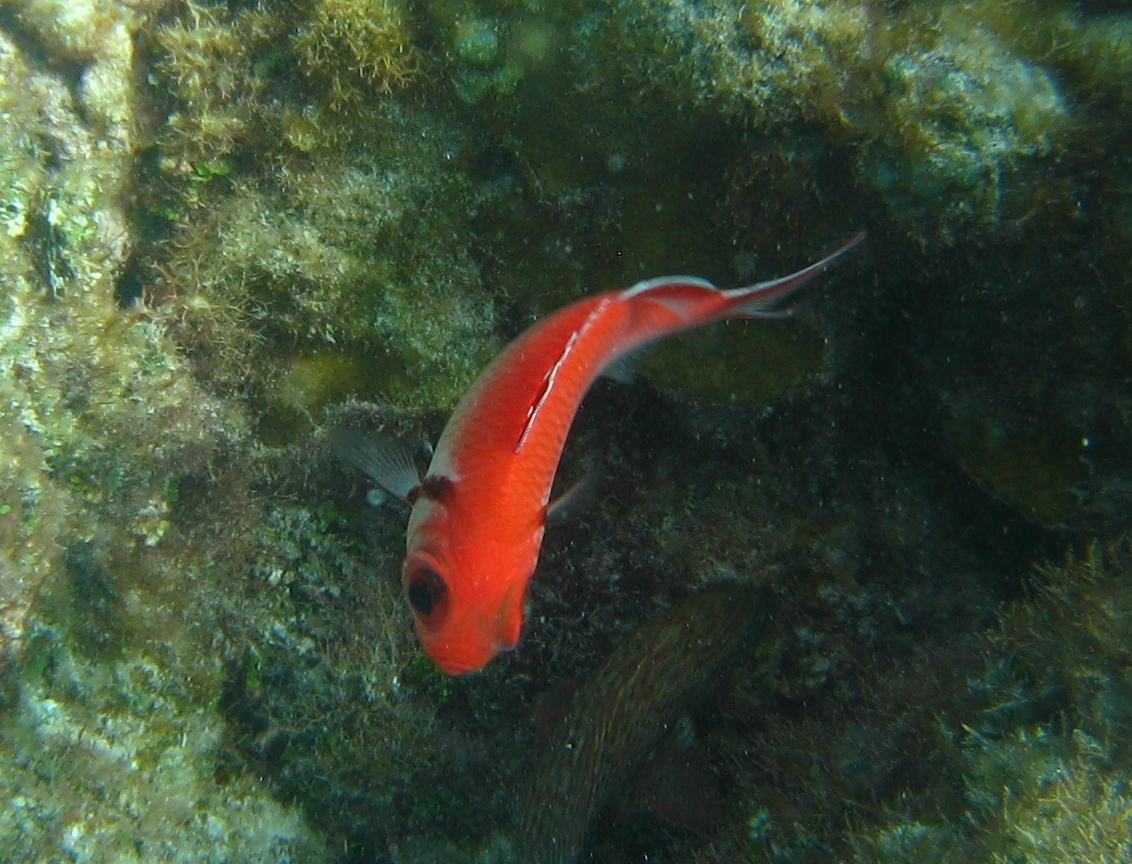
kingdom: Animalia
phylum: Chordata
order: Beryciformes
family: Holocentridae
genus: Myripristis
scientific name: Myripristis jacobus
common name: Blackbar soldierfish
